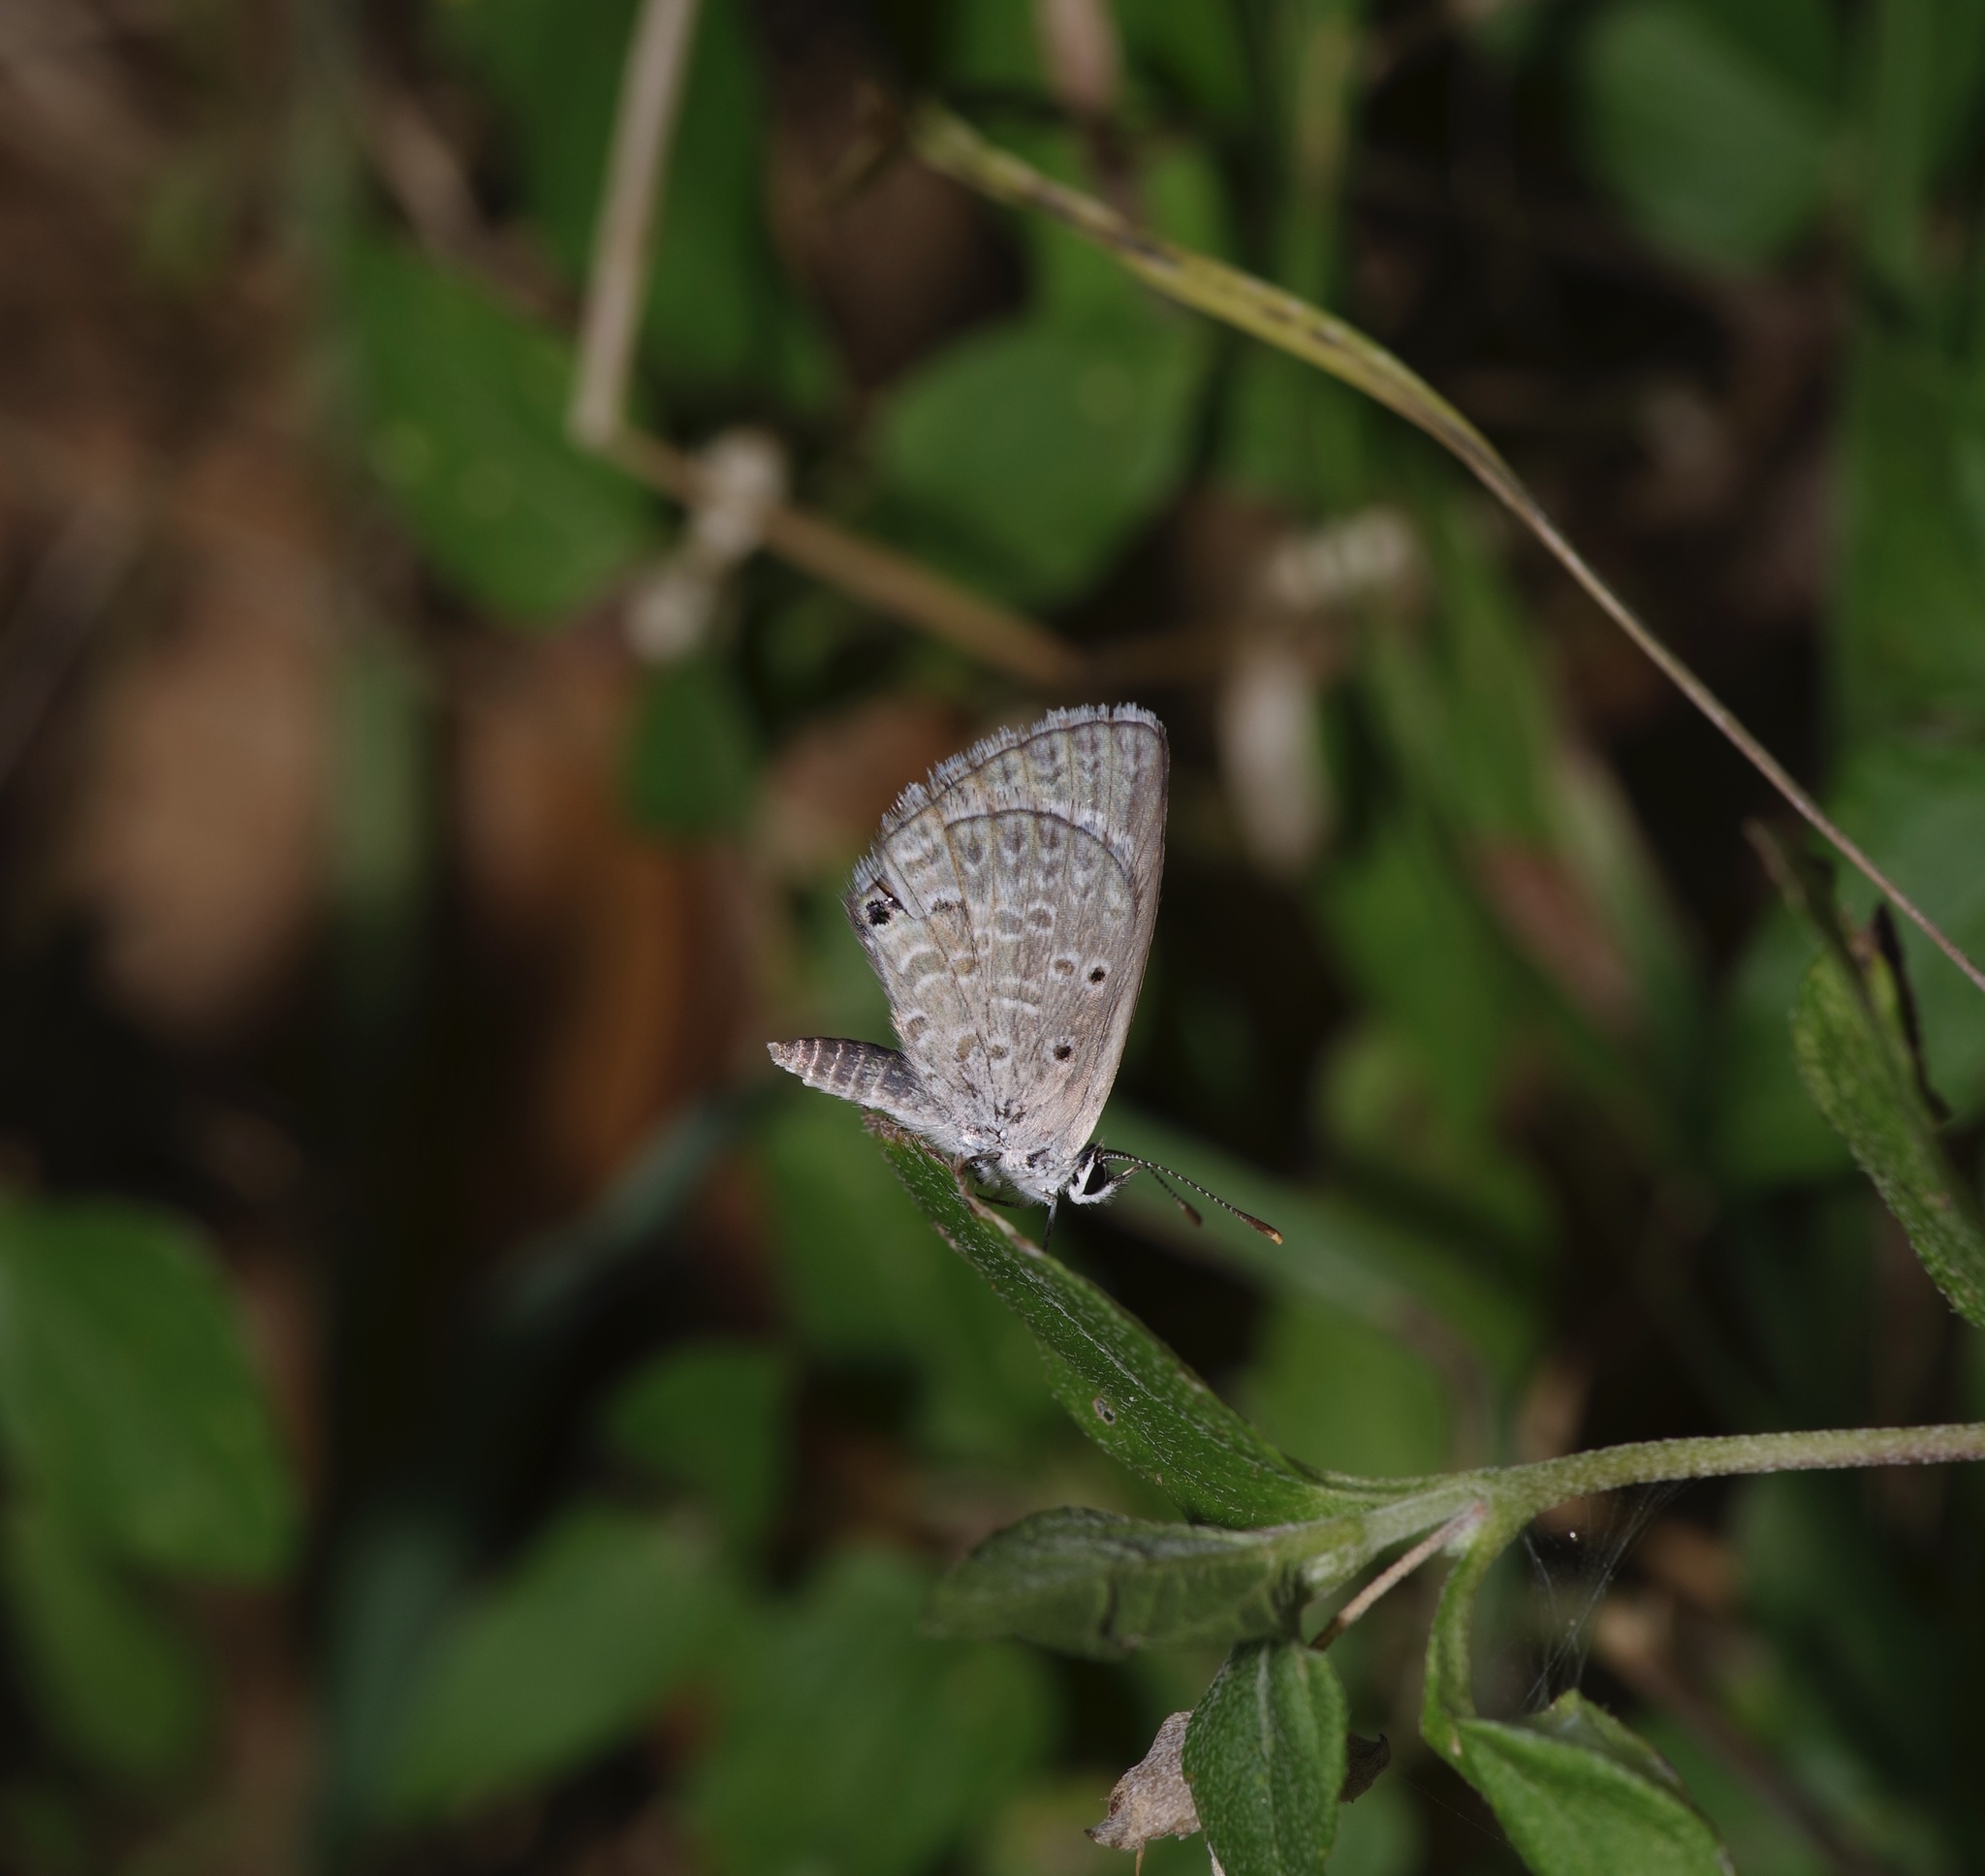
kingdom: Animalia
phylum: Arthropoda
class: Insecta
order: Lepidoptera
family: Lycaenidae
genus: Hemiargus
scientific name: Hemiargus ceraunus
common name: Ceraunus blue
